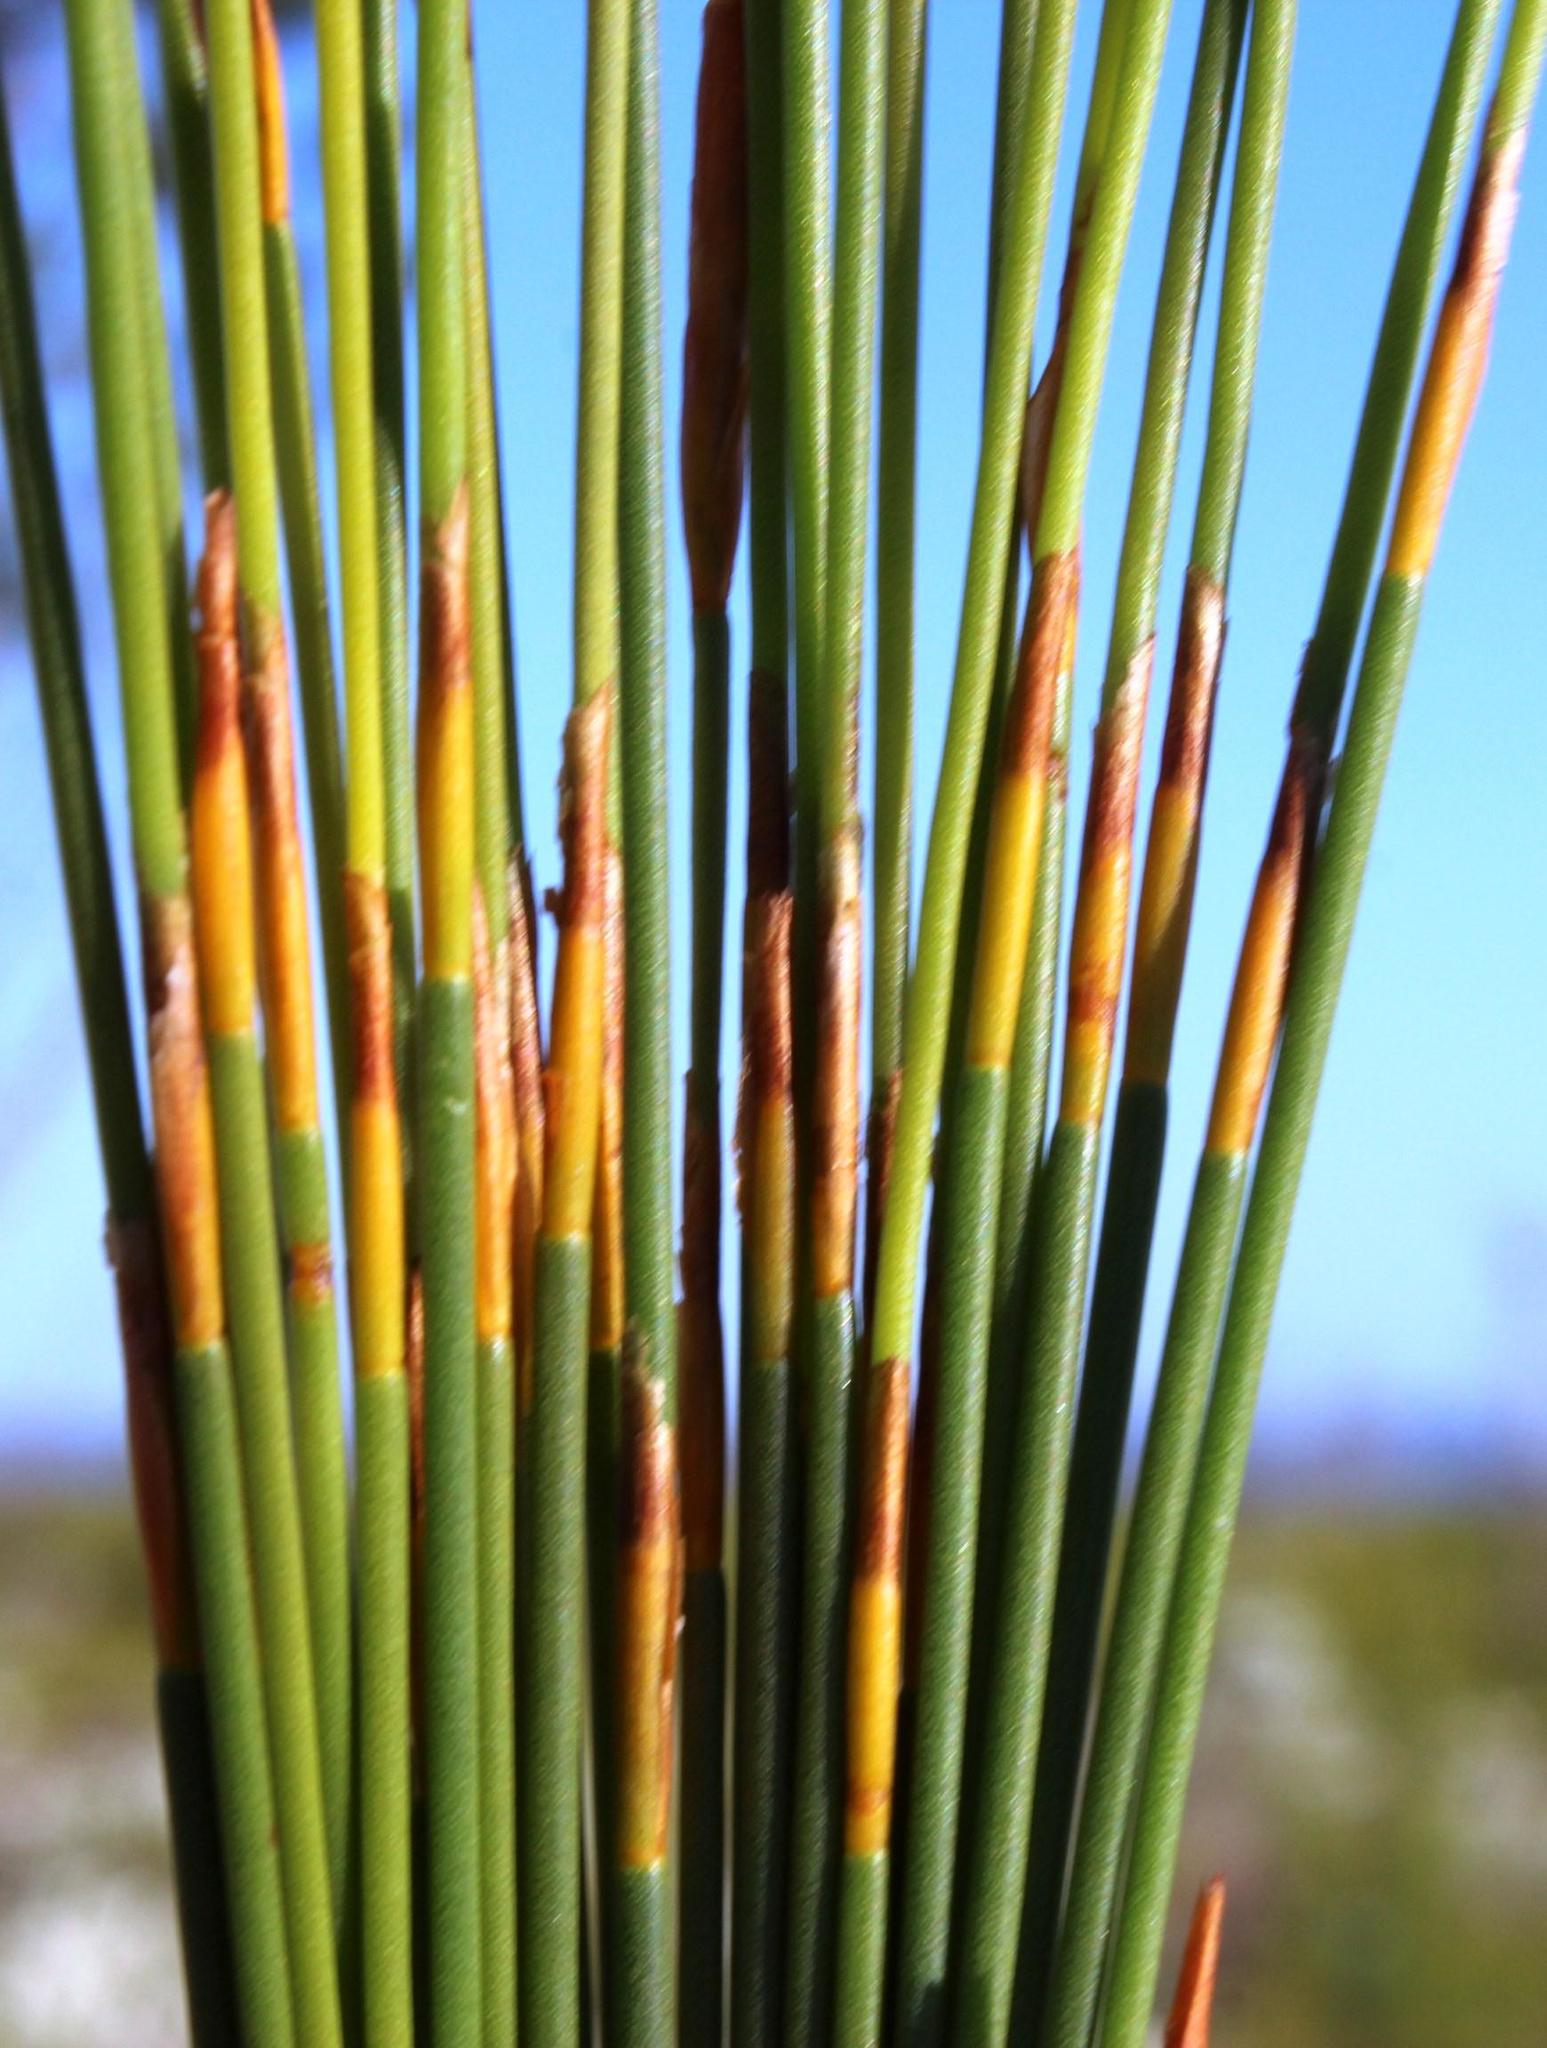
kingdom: Plantae
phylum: Tracheophyta
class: Liliopsida
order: Poales
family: Restionaceae
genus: Elegia
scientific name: Elegia filacea
